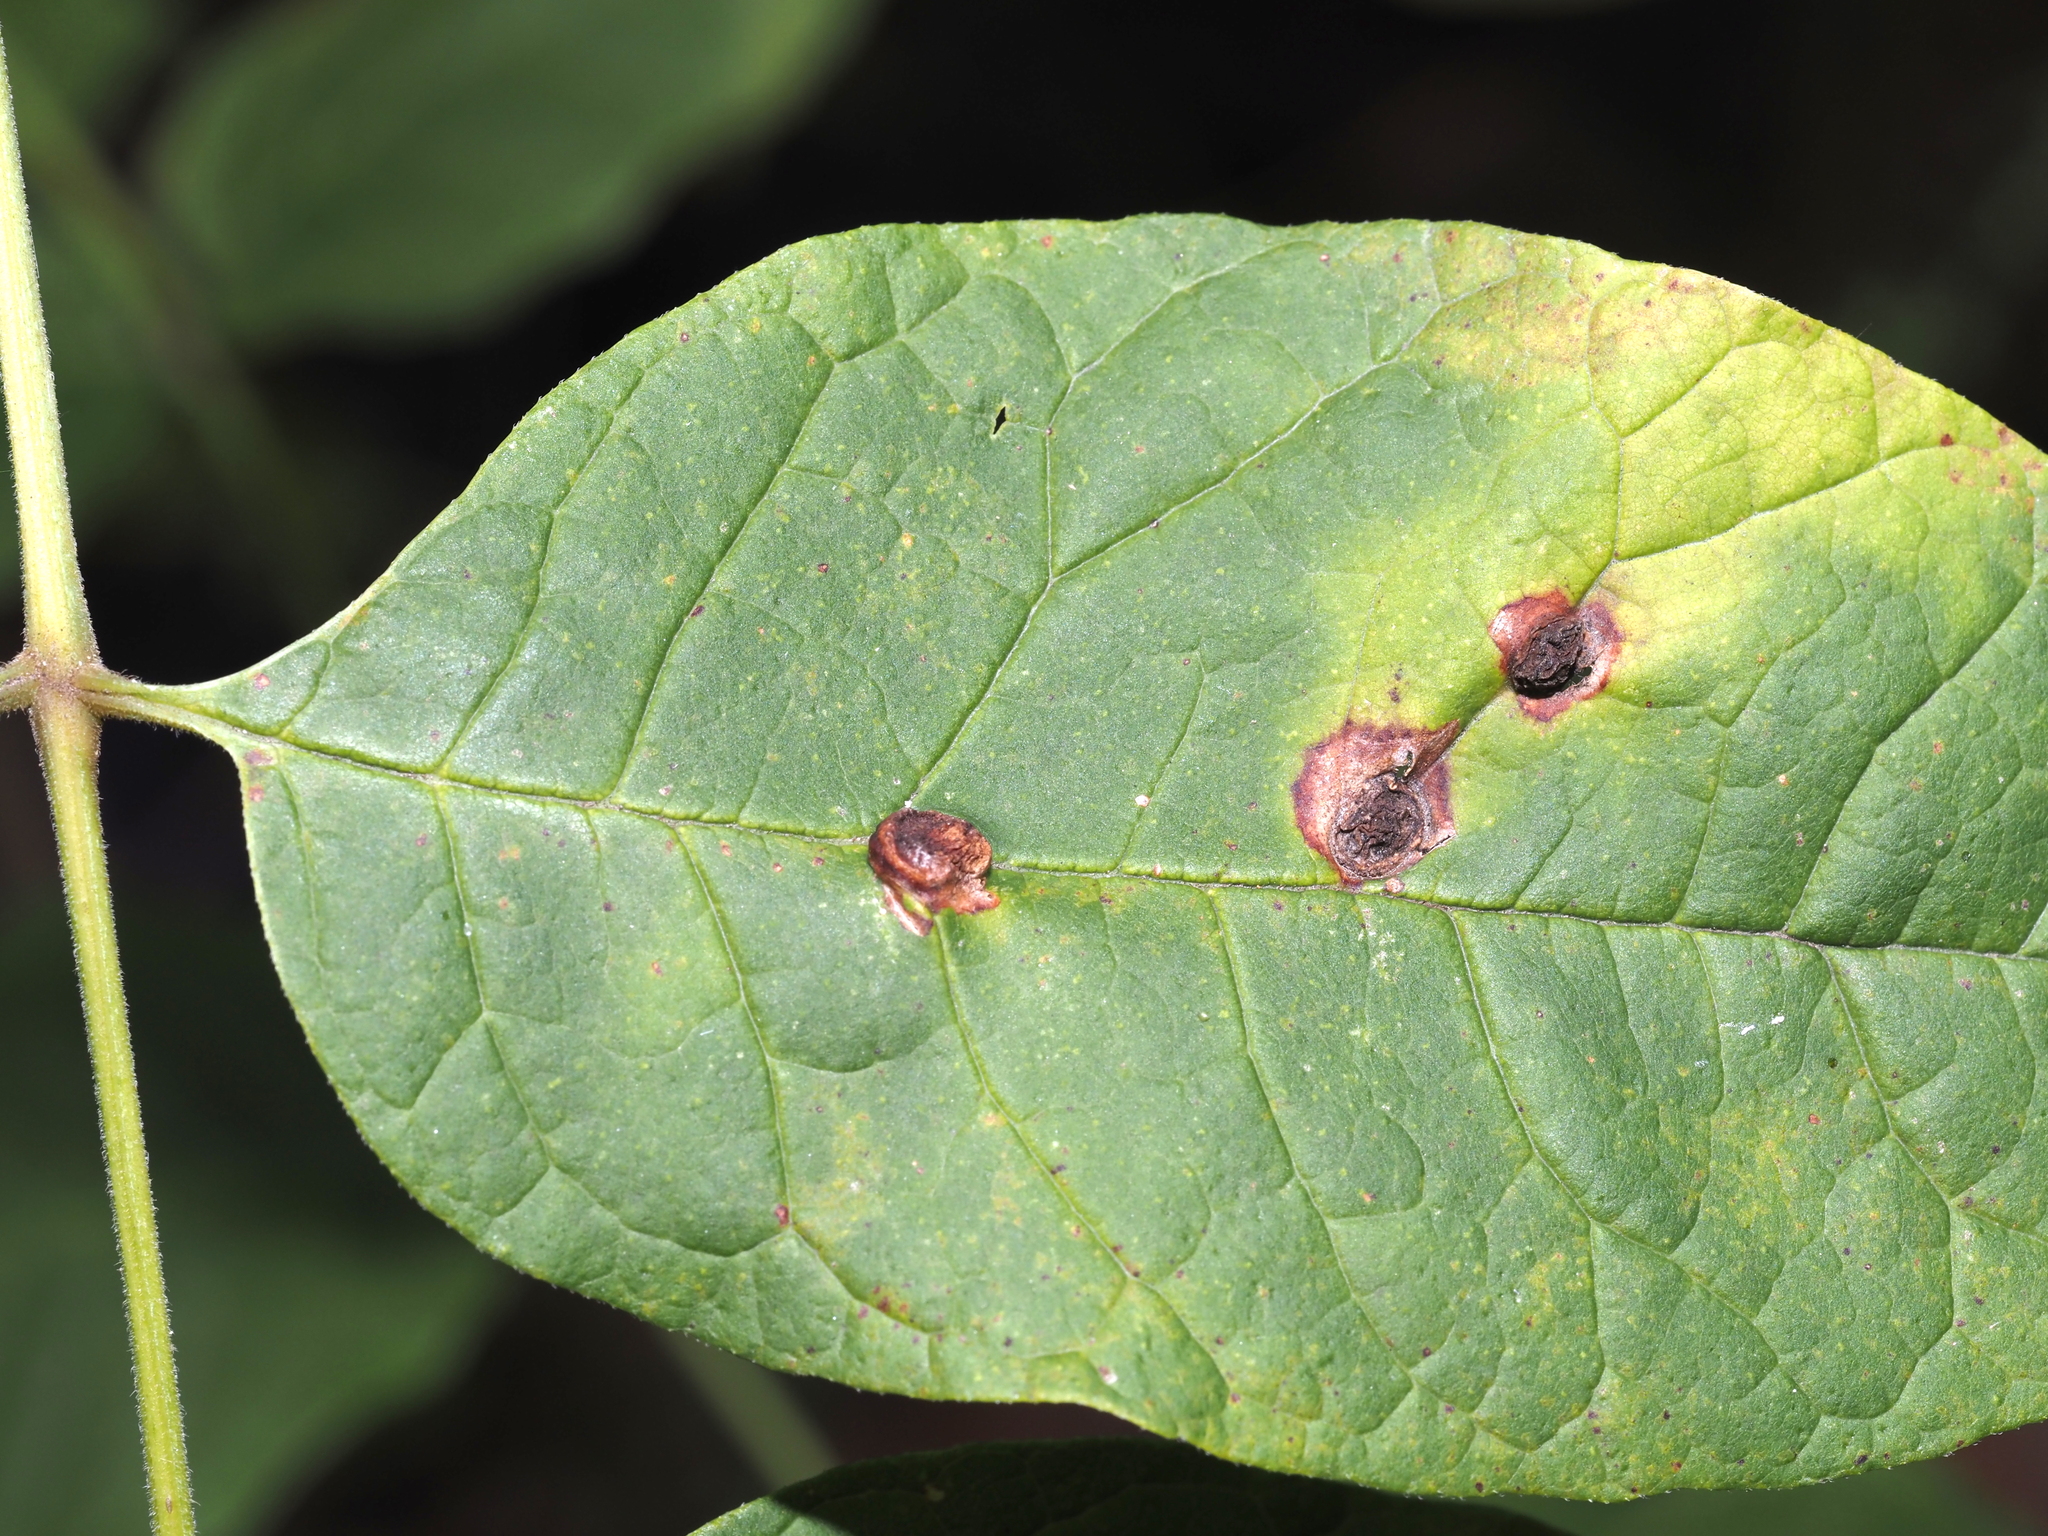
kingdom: Animalia
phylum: Arthropoda
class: Insecta
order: Diptera
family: Cecidomyiidae
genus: Dasineura
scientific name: Dasineura pellex
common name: Ash bullet gall midge
